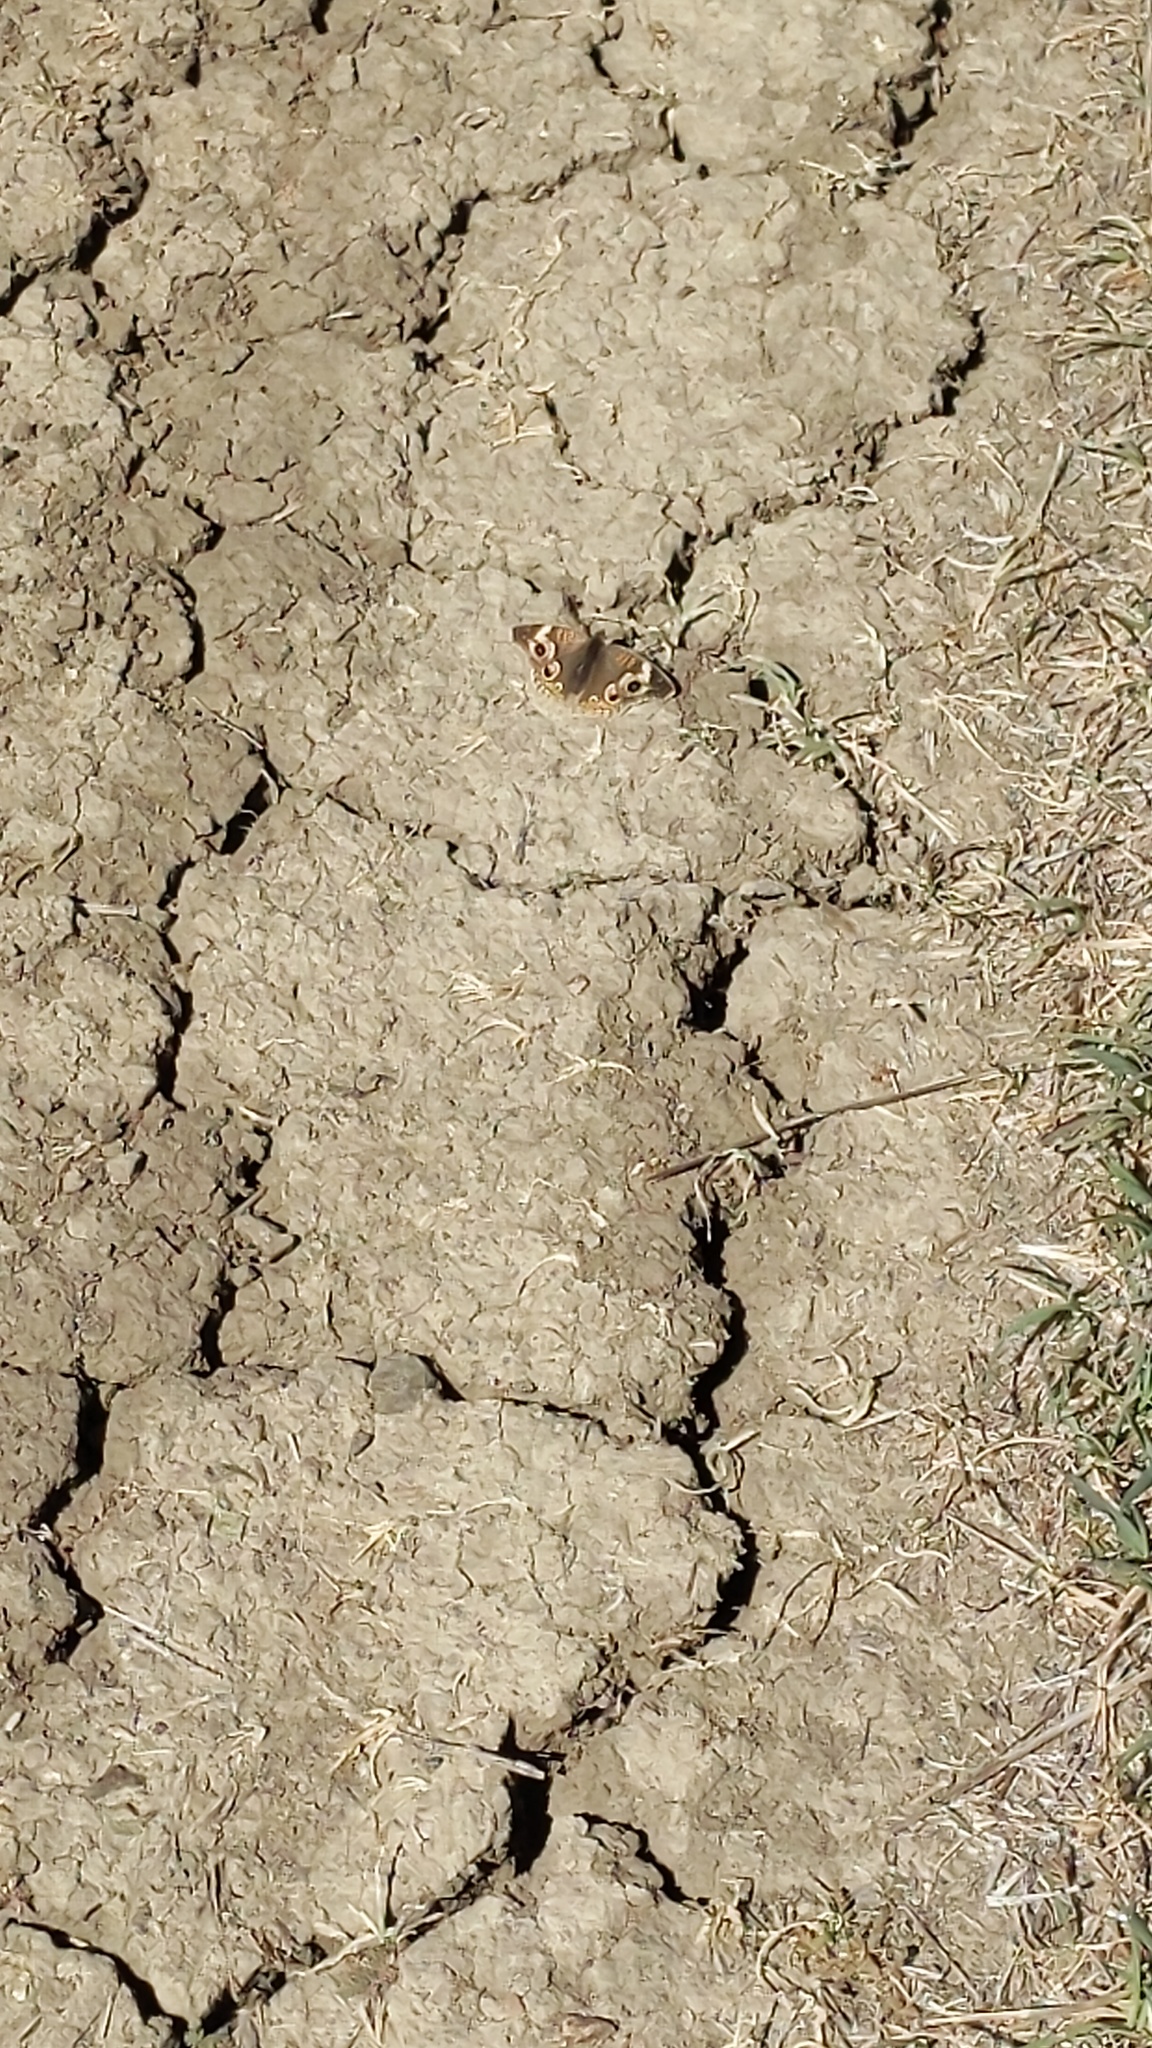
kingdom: Animalia
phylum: Arthropoda
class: Insecta
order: Lepidoptera
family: Nymphalidae
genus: Junonia
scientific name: Junonia grisea
